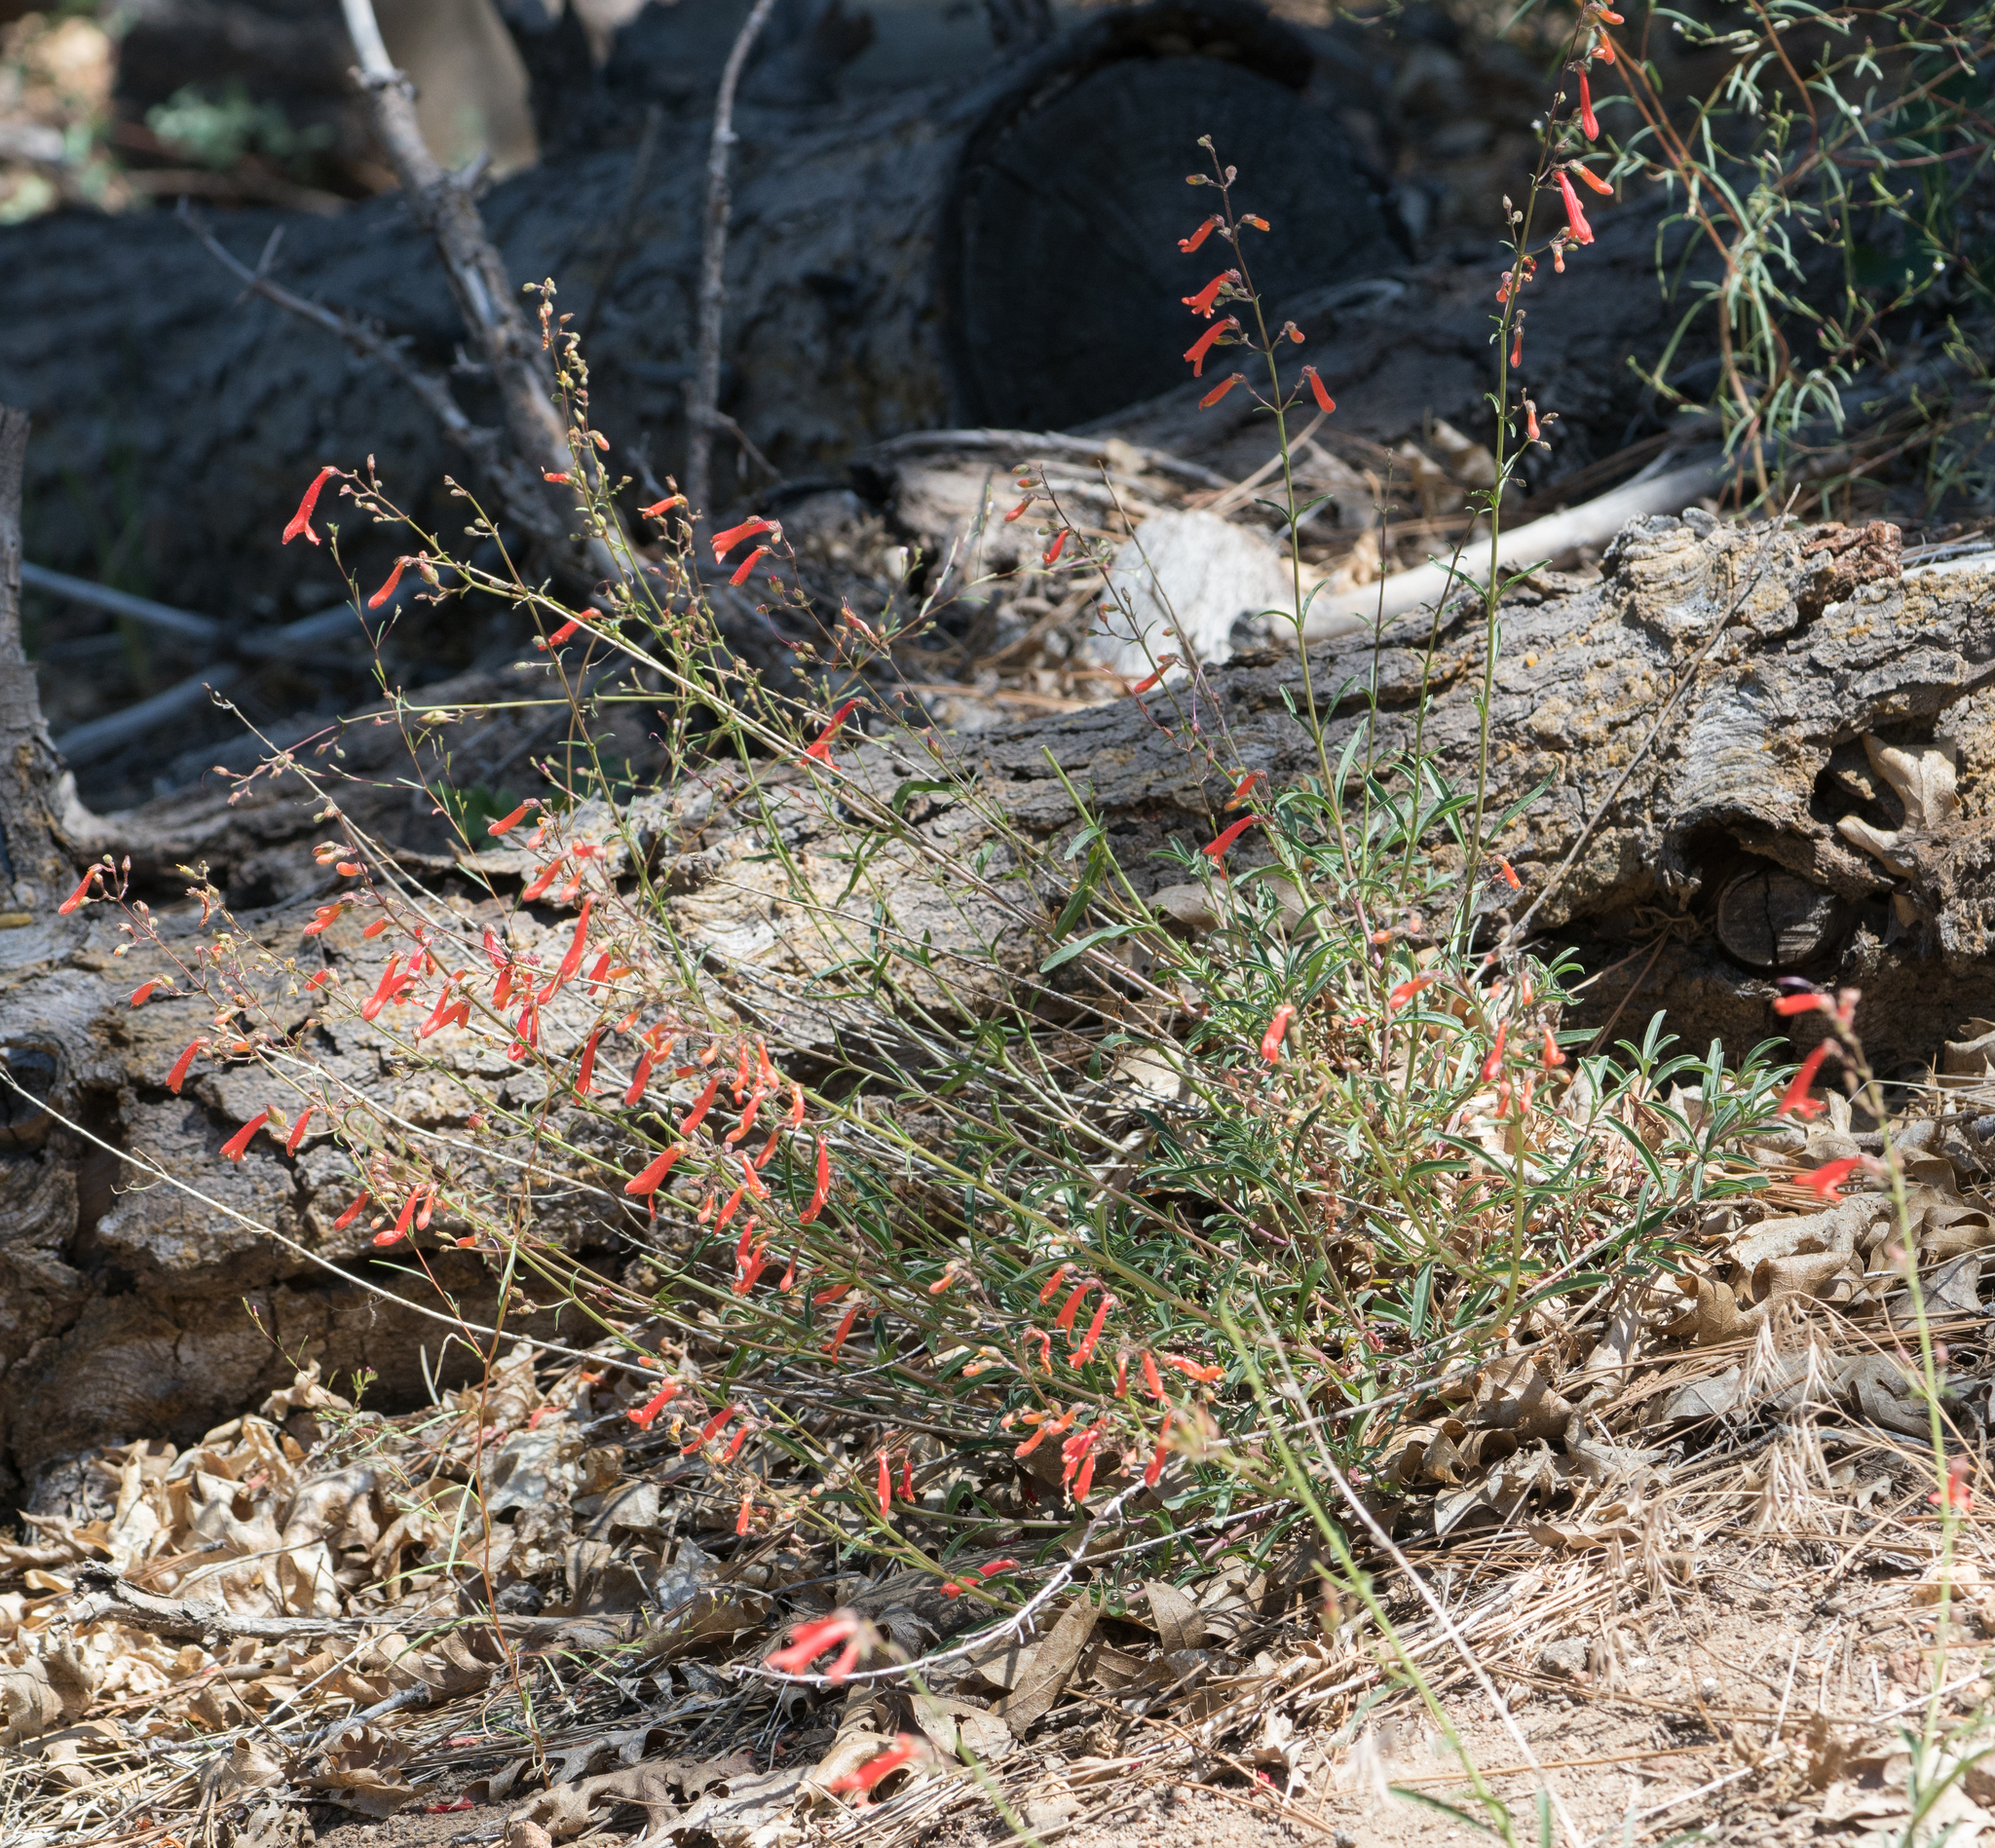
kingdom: Plantae
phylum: Tracheophyta
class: Magnoliopsida
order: Lamiales
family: Plantaginaceae
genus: Penstemon
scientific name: Penstemon rostriflorus
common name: Bridges's penstemon
